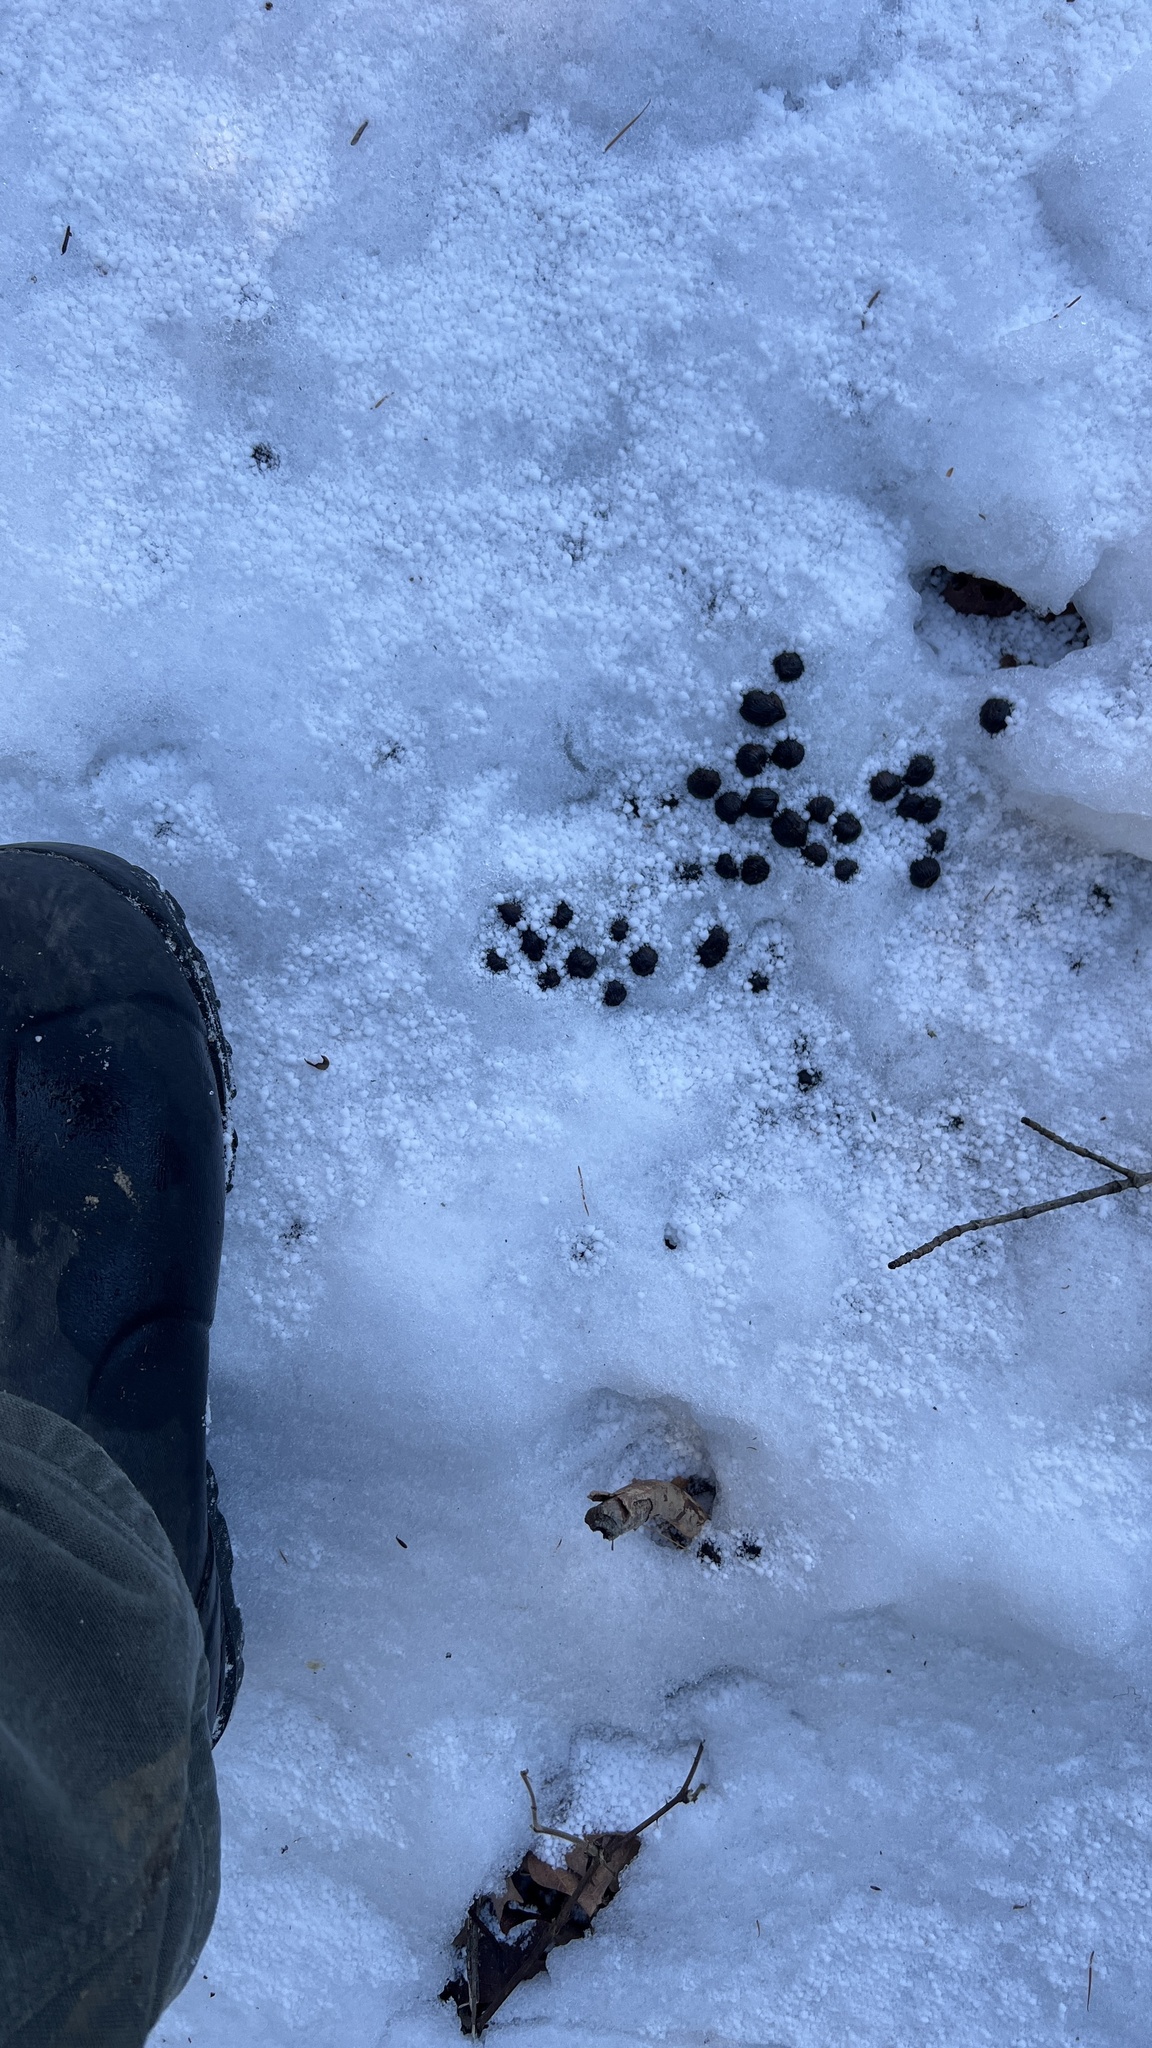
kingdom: Animalia
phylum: Chordata
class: Mammalia
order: Artiodactyla
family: Cervidae
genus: Odocoileus
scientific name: Odocoileus virginianus
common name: White-tailed deer
